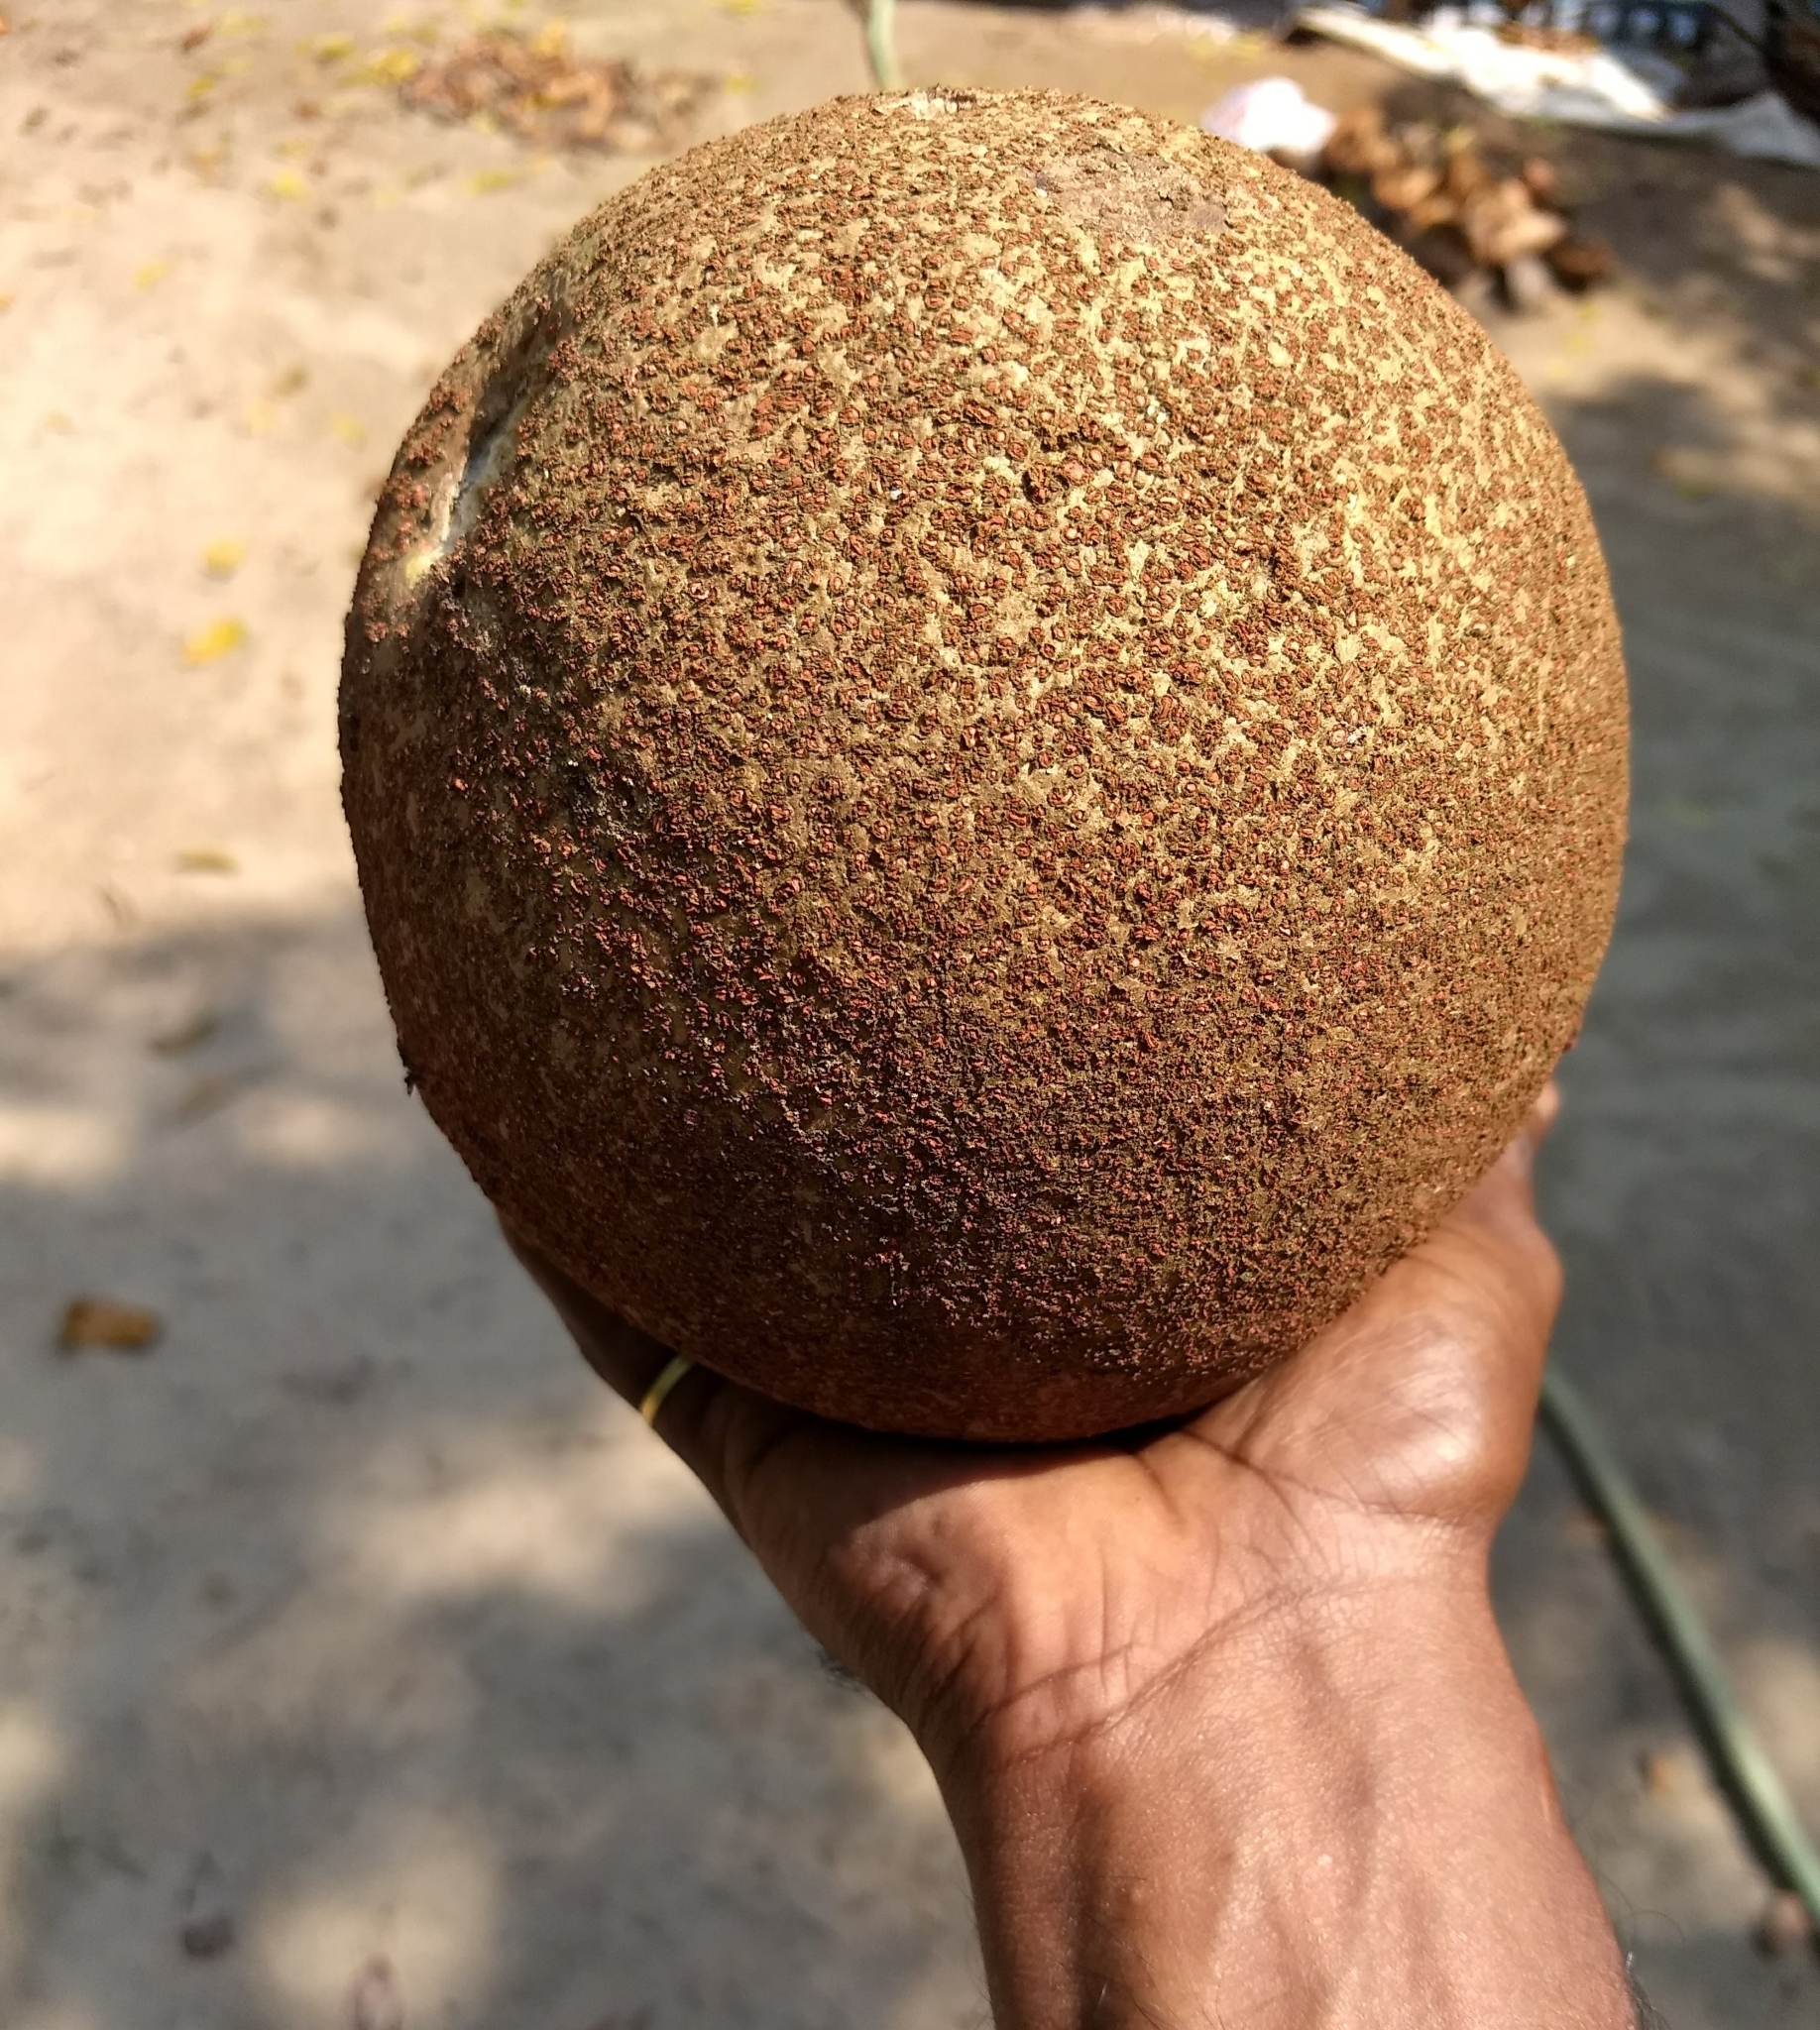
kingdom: Plantae
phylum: Tracheophyta
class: Magnoliopsida
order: Ericales
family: Lecythidaceae
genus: Couroupita
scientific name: Couroupita guianensis
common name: Cannonball tree
